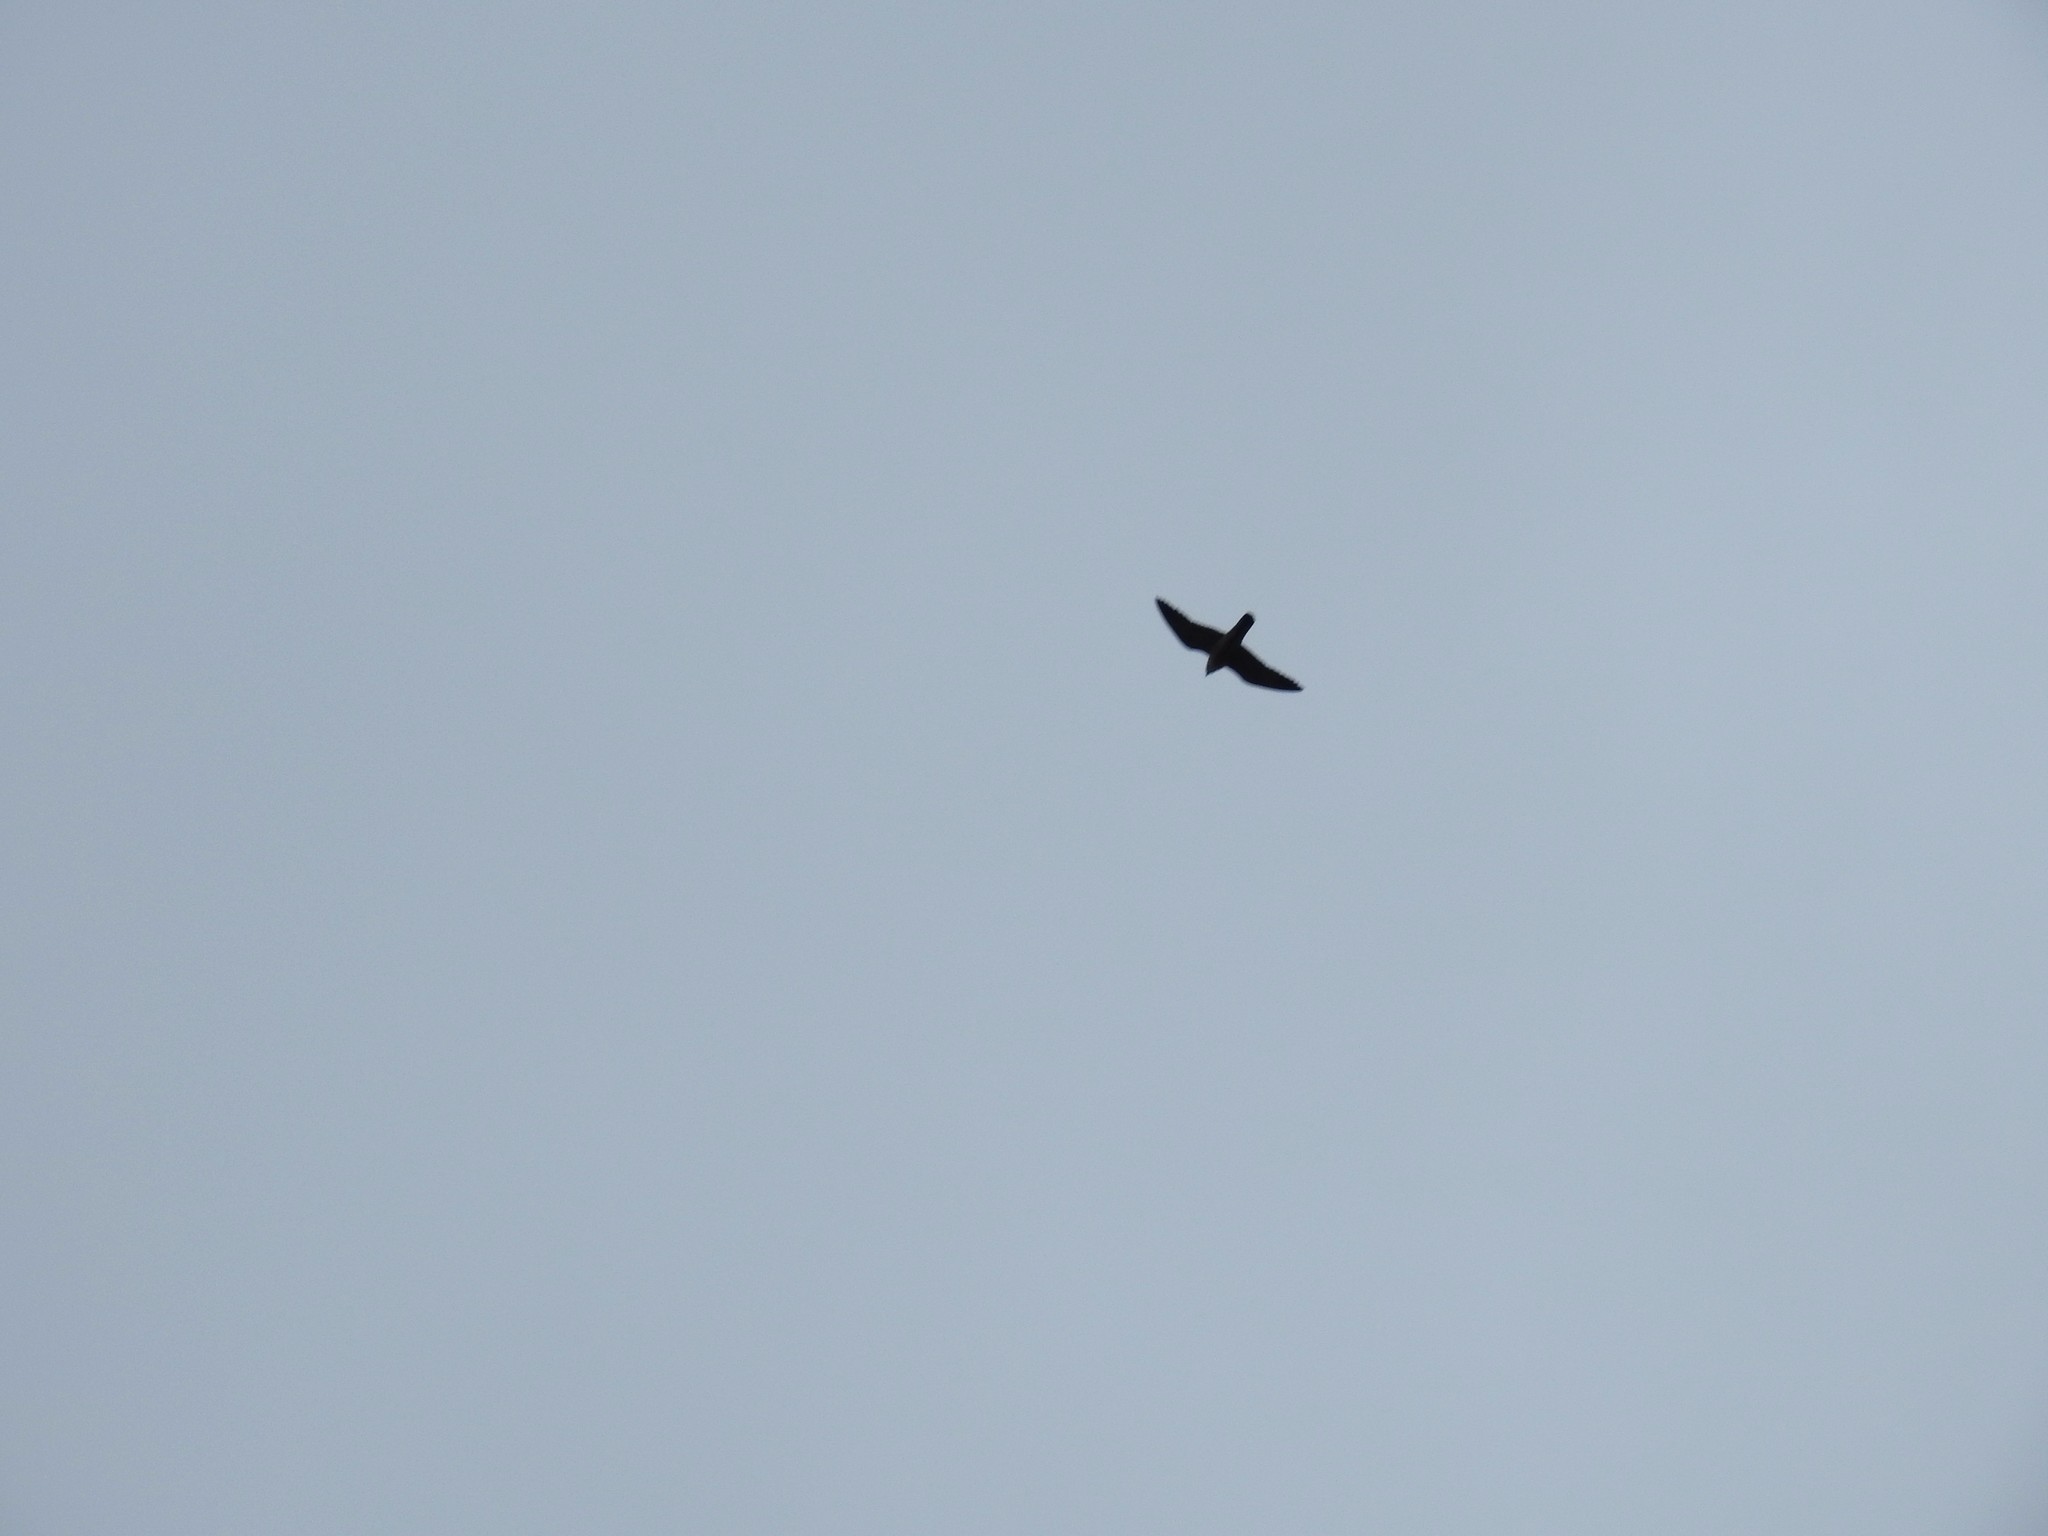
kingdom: Animalia
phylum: Chordata
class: Aves
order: Falconiformes
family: Falconidae
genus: Falco
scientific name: Falco peregrinus
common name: Peregrine falcon
